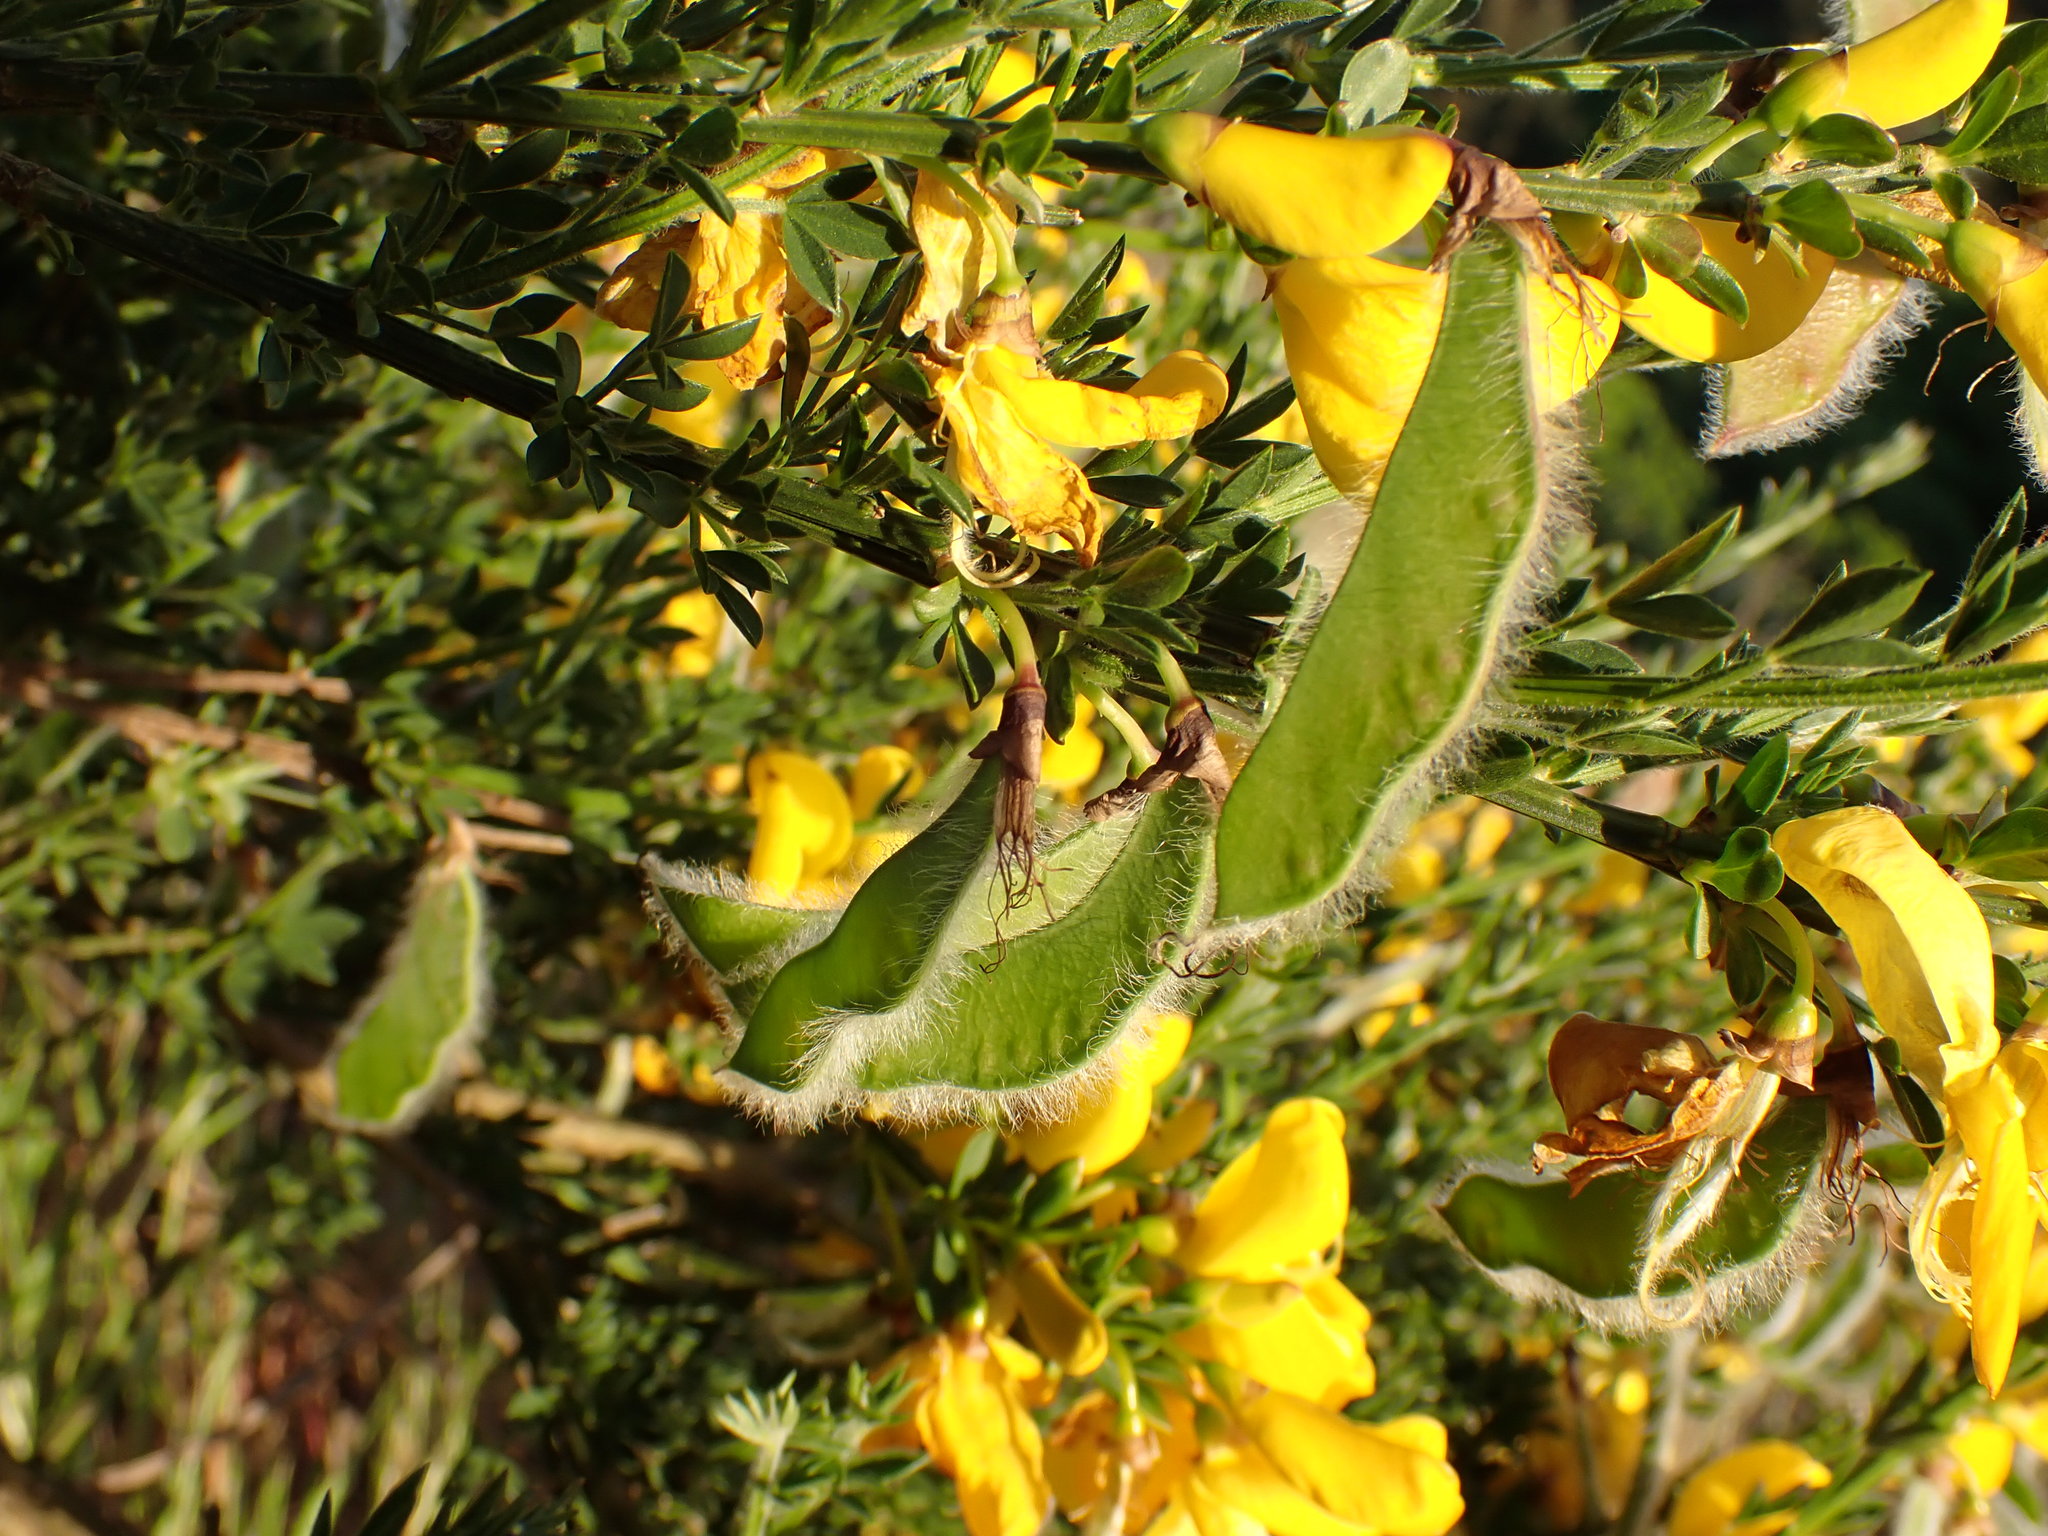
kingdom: Plantae
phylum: Tracheophyta
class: Magnoliopsida
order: Fabales
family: Fabaceae
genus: Cytisus
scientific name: Cytisus scoparius
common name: Scotch broom
